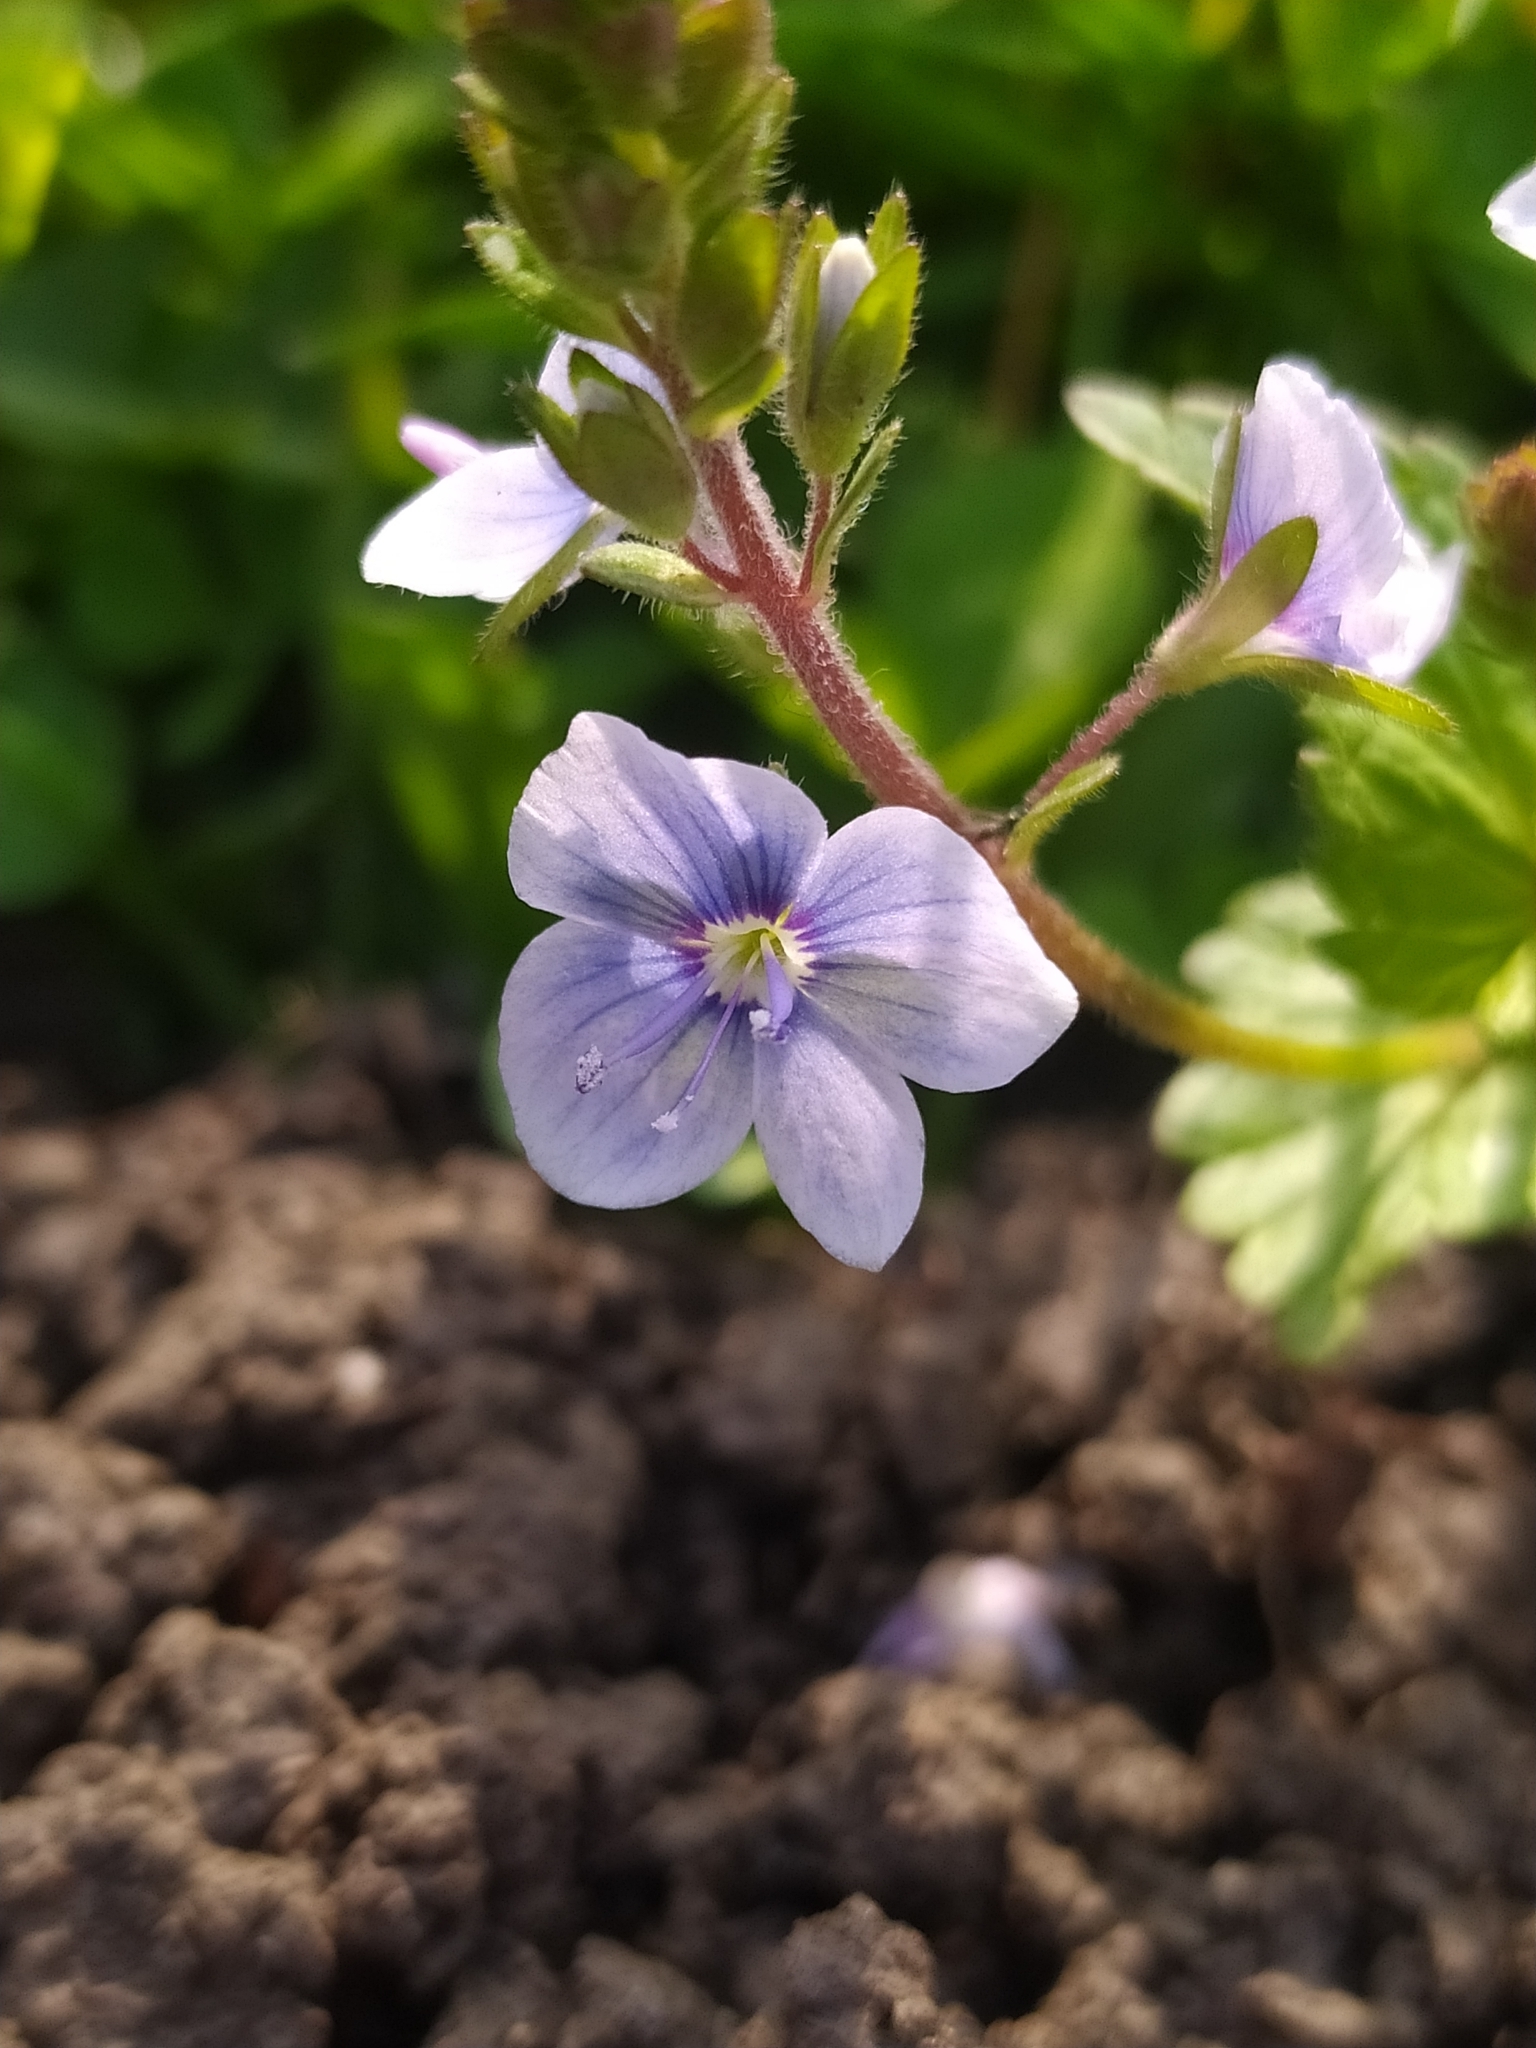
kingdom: Plantae
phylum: Tracheophyta
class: Magnoliopsida
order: Lamiales
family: Plantaginaceae
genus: Veronica
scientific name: Veronica chamaedrys
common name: Germander speedwell
